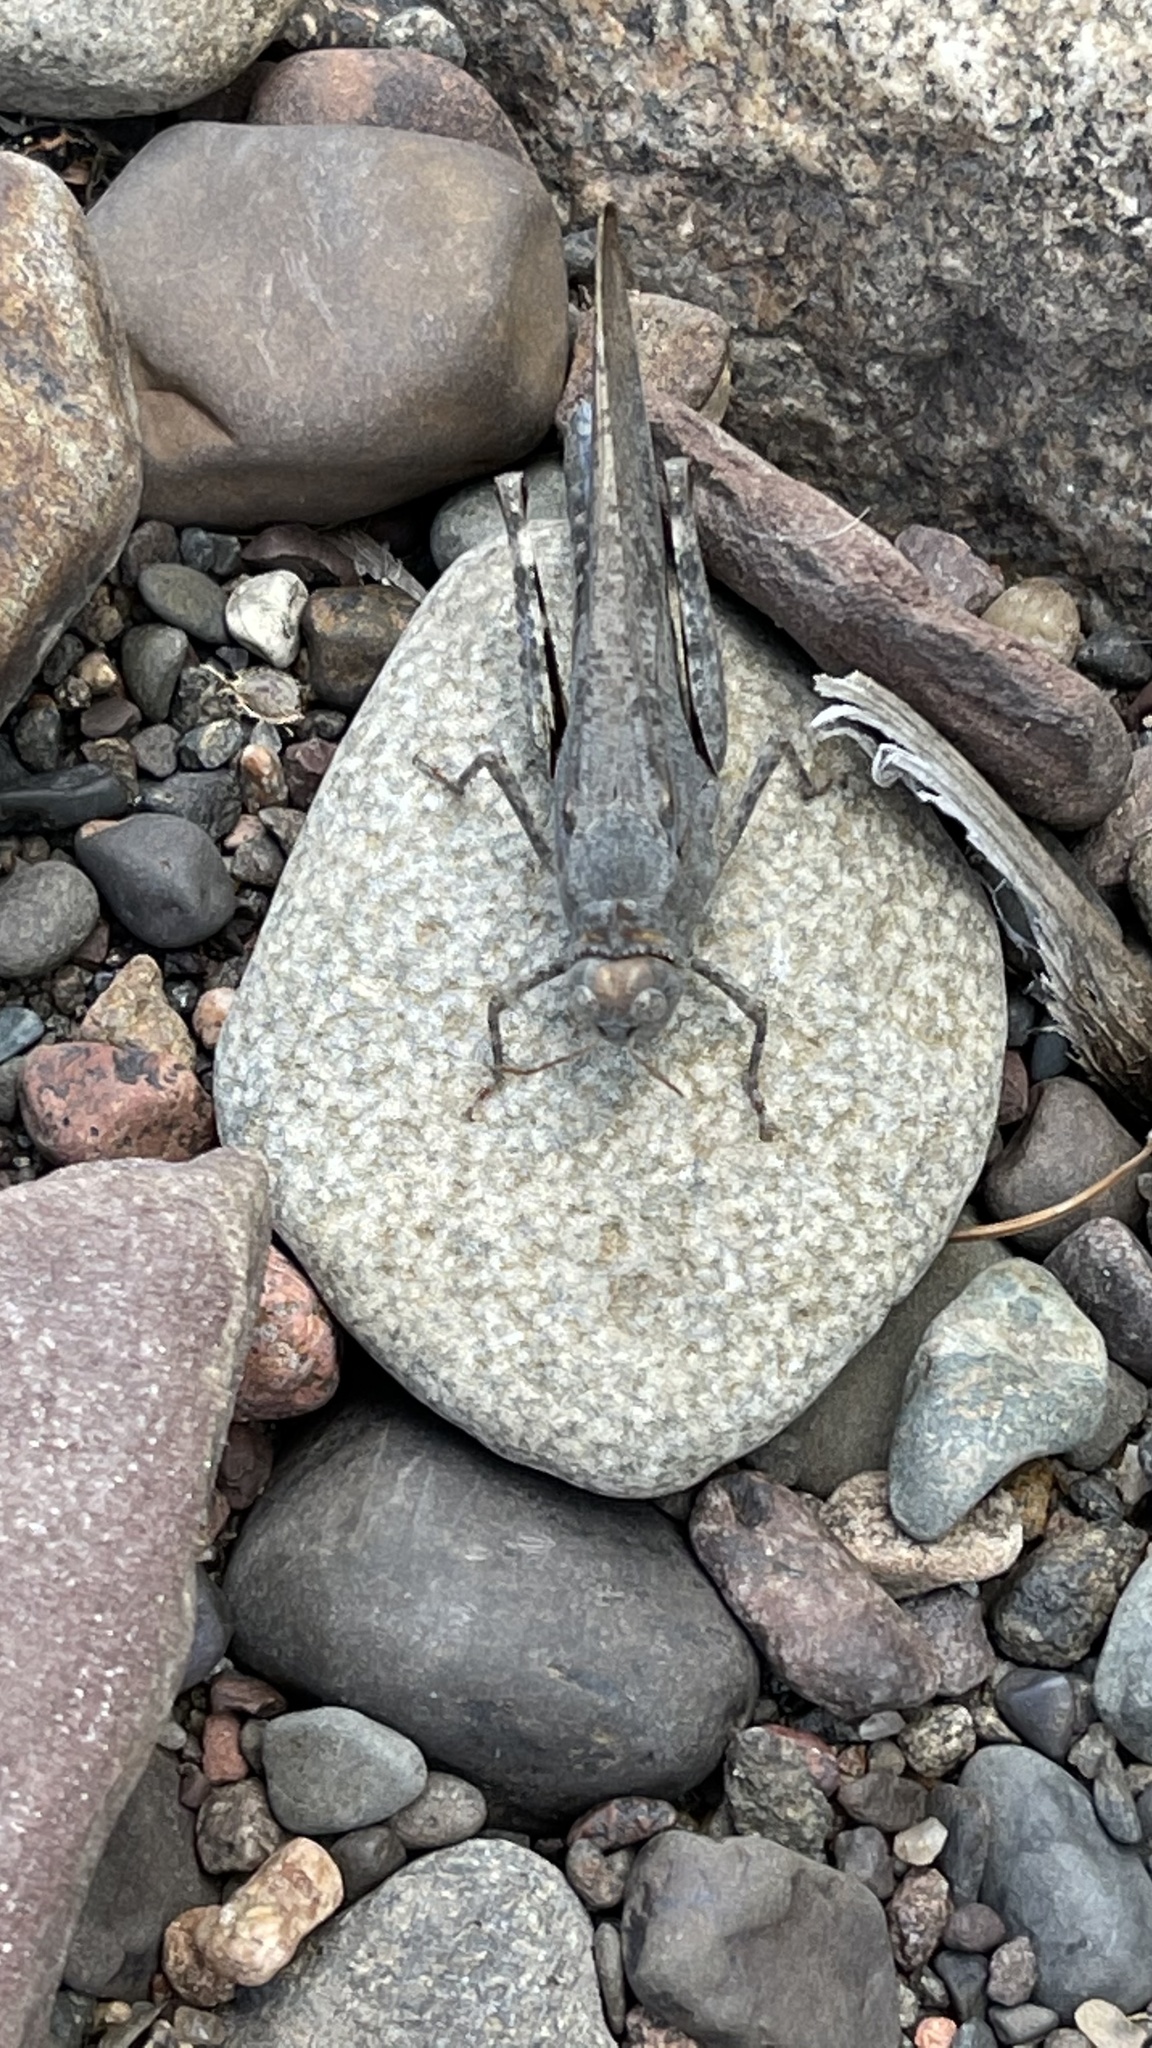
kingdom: Animalia
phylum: Arthropoda
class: Insecta
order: Orthoptera
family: Acrididae
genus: Dissosteira
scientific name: Dissosteira carolina
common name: Carolina grasshopper
